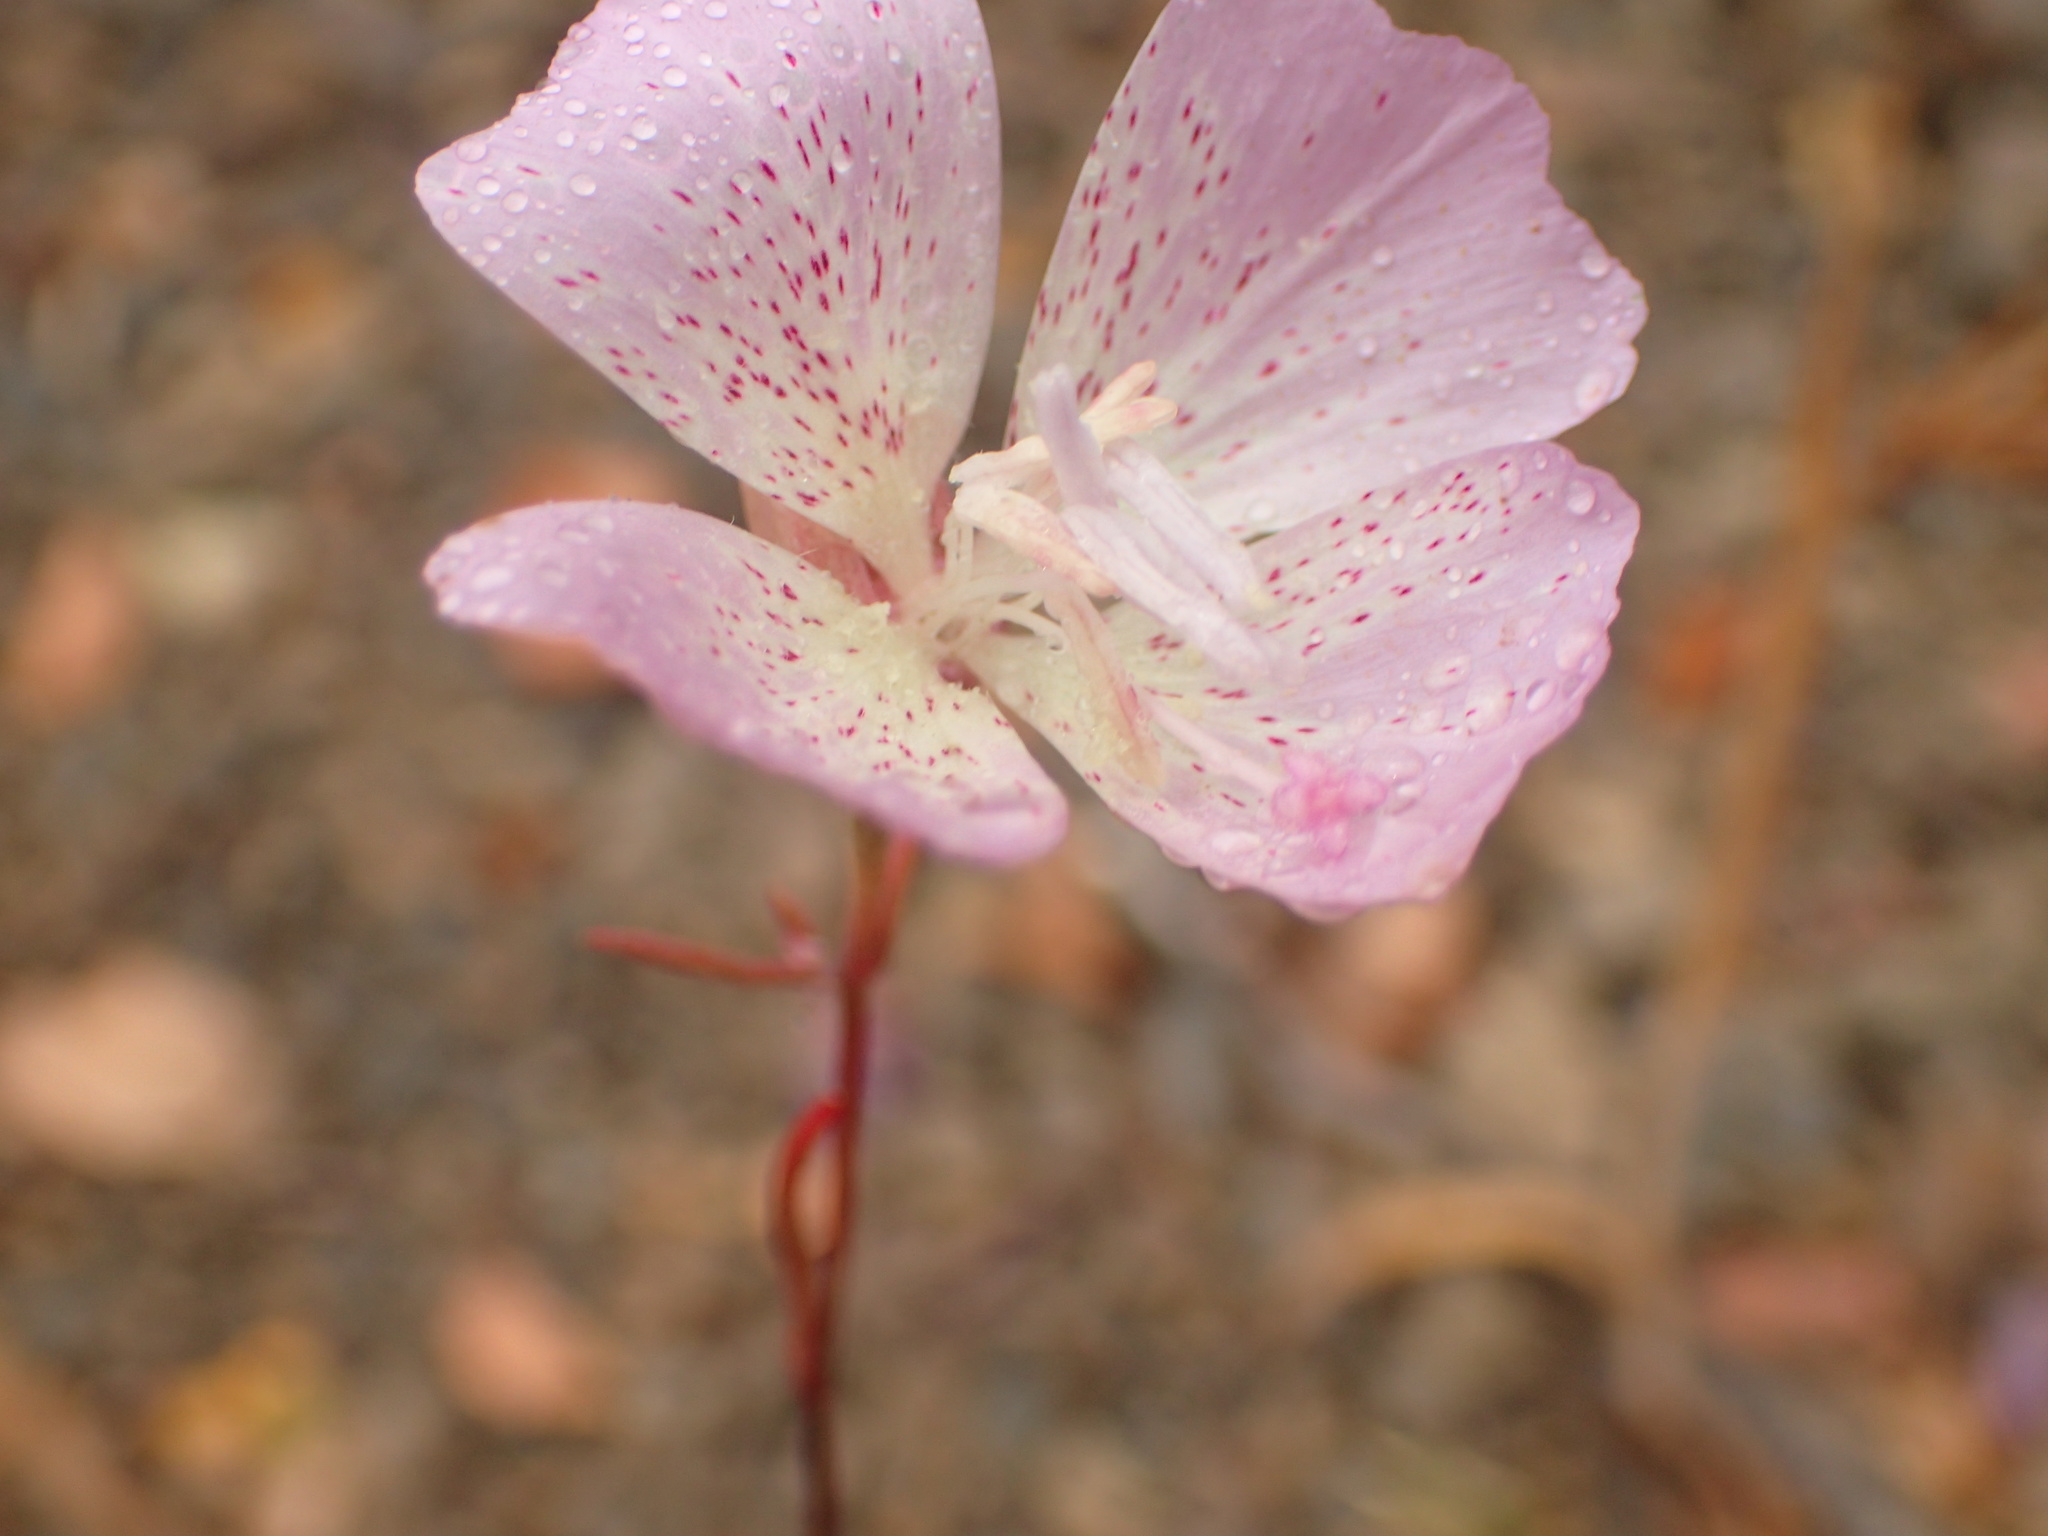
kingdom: Plantae
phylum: Tracheophyta
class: Magnoliopsida
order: Myrtales
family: Onagraceae
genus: Clarkia
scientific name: Clarkia bottae
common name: Punch-bowl godetia
